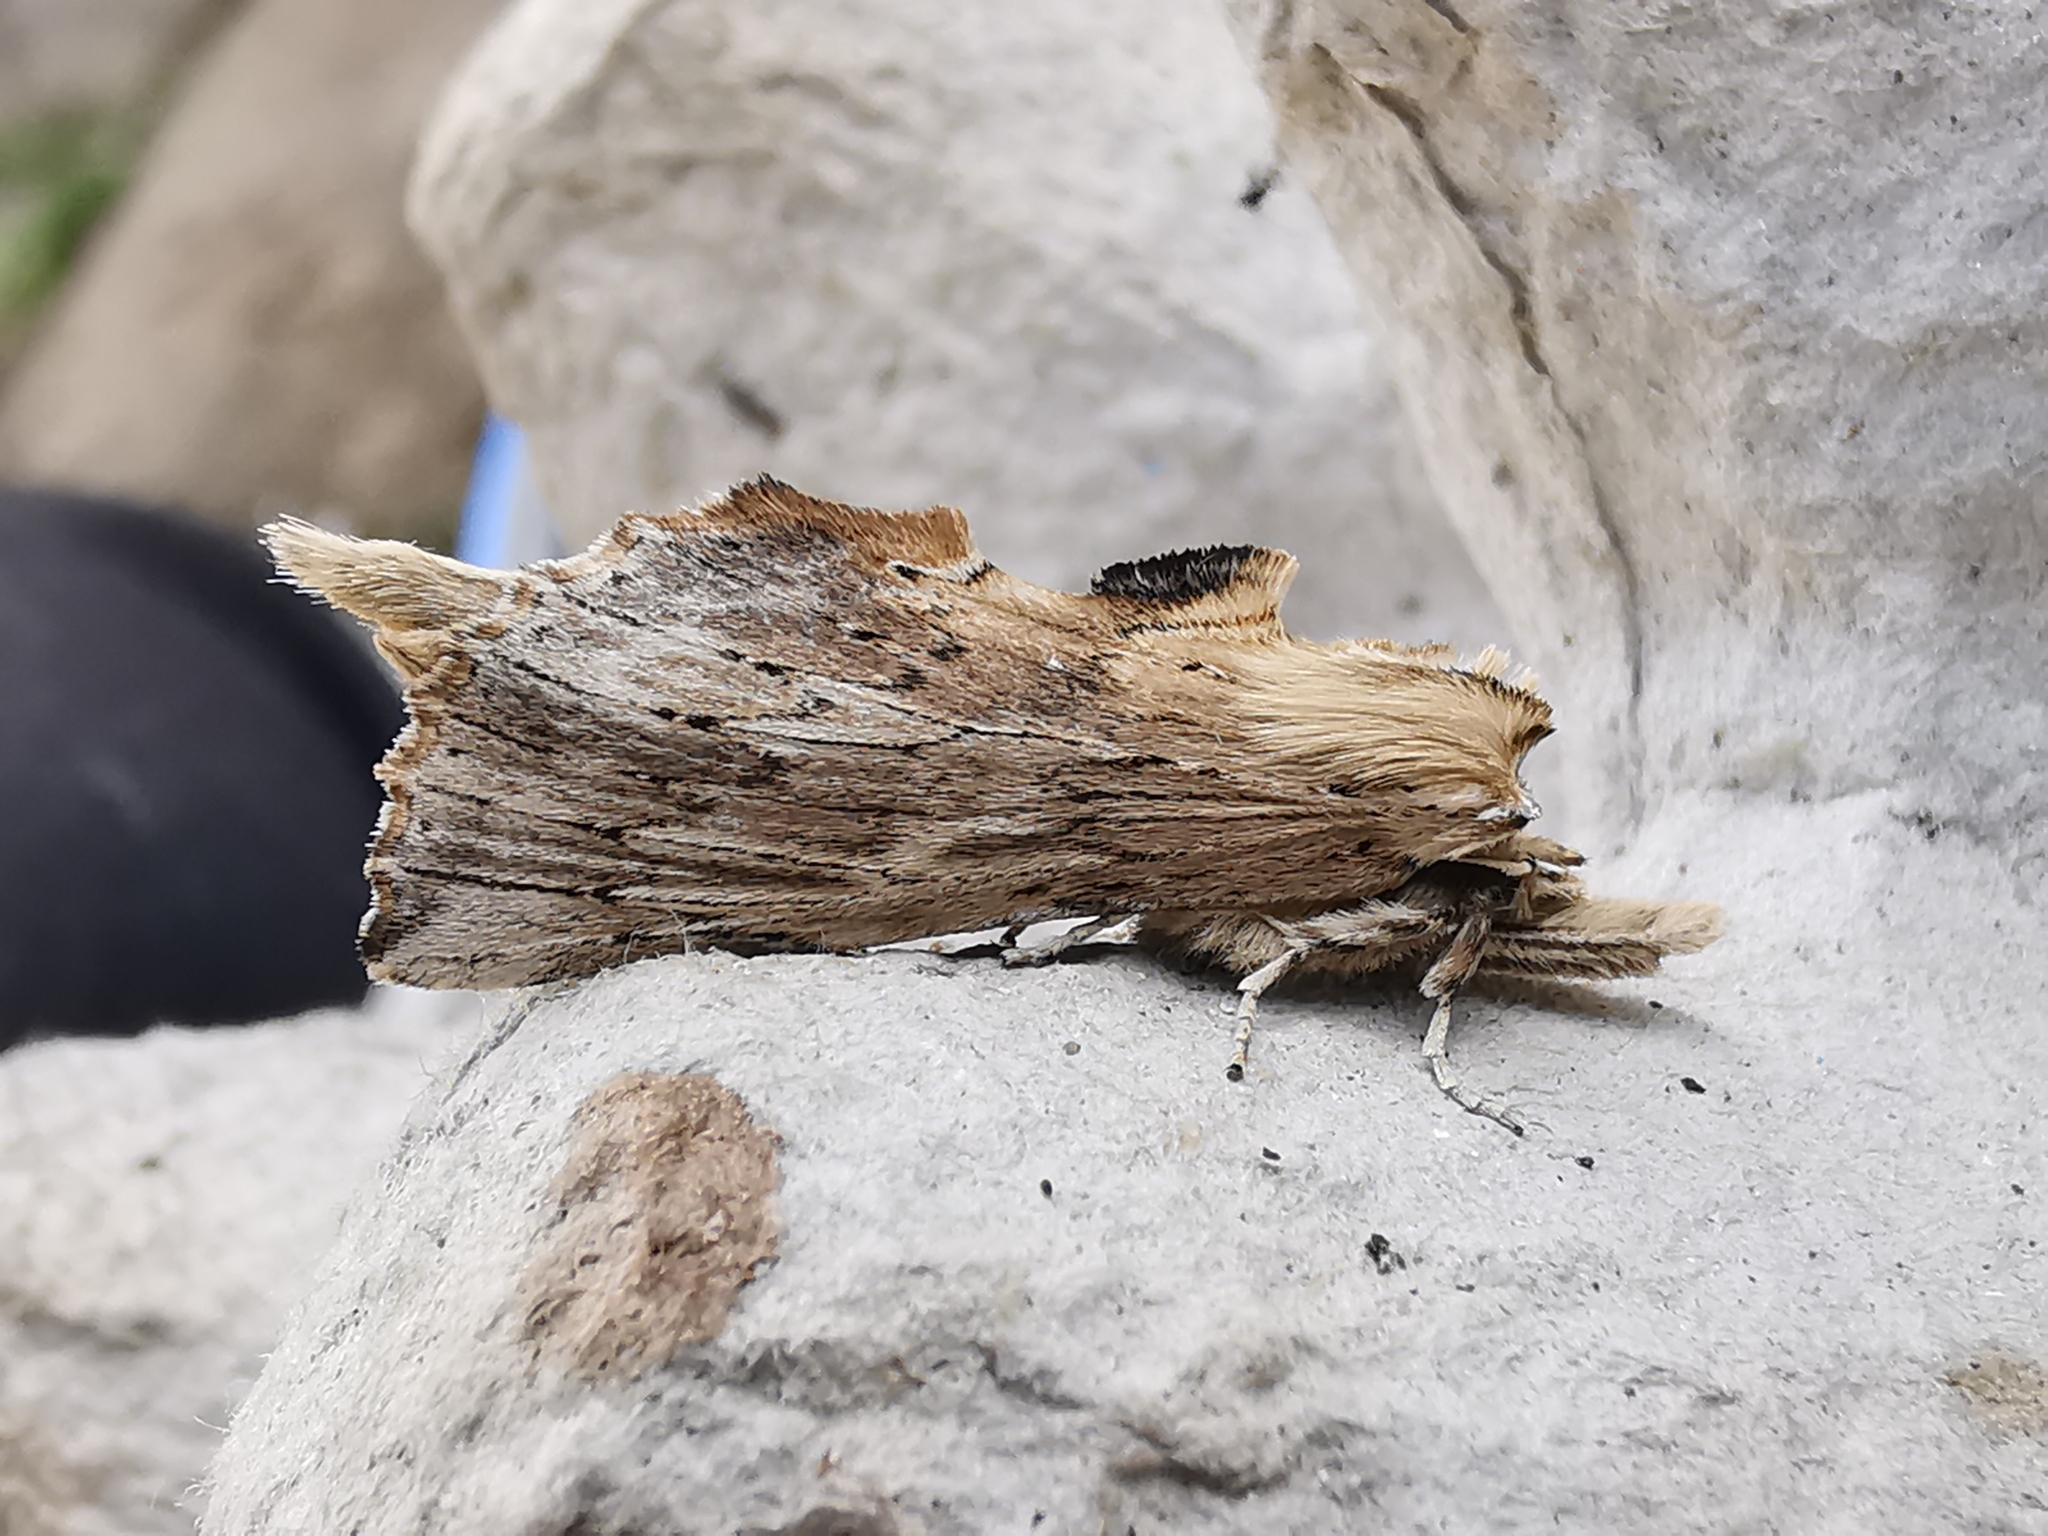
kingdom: Animalia
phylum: Arthropoda
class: Insecta
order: Lepidoptera
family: Notodontidae
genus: Pterostoma
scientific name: Pterostoma palpina
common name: Pale prominent
